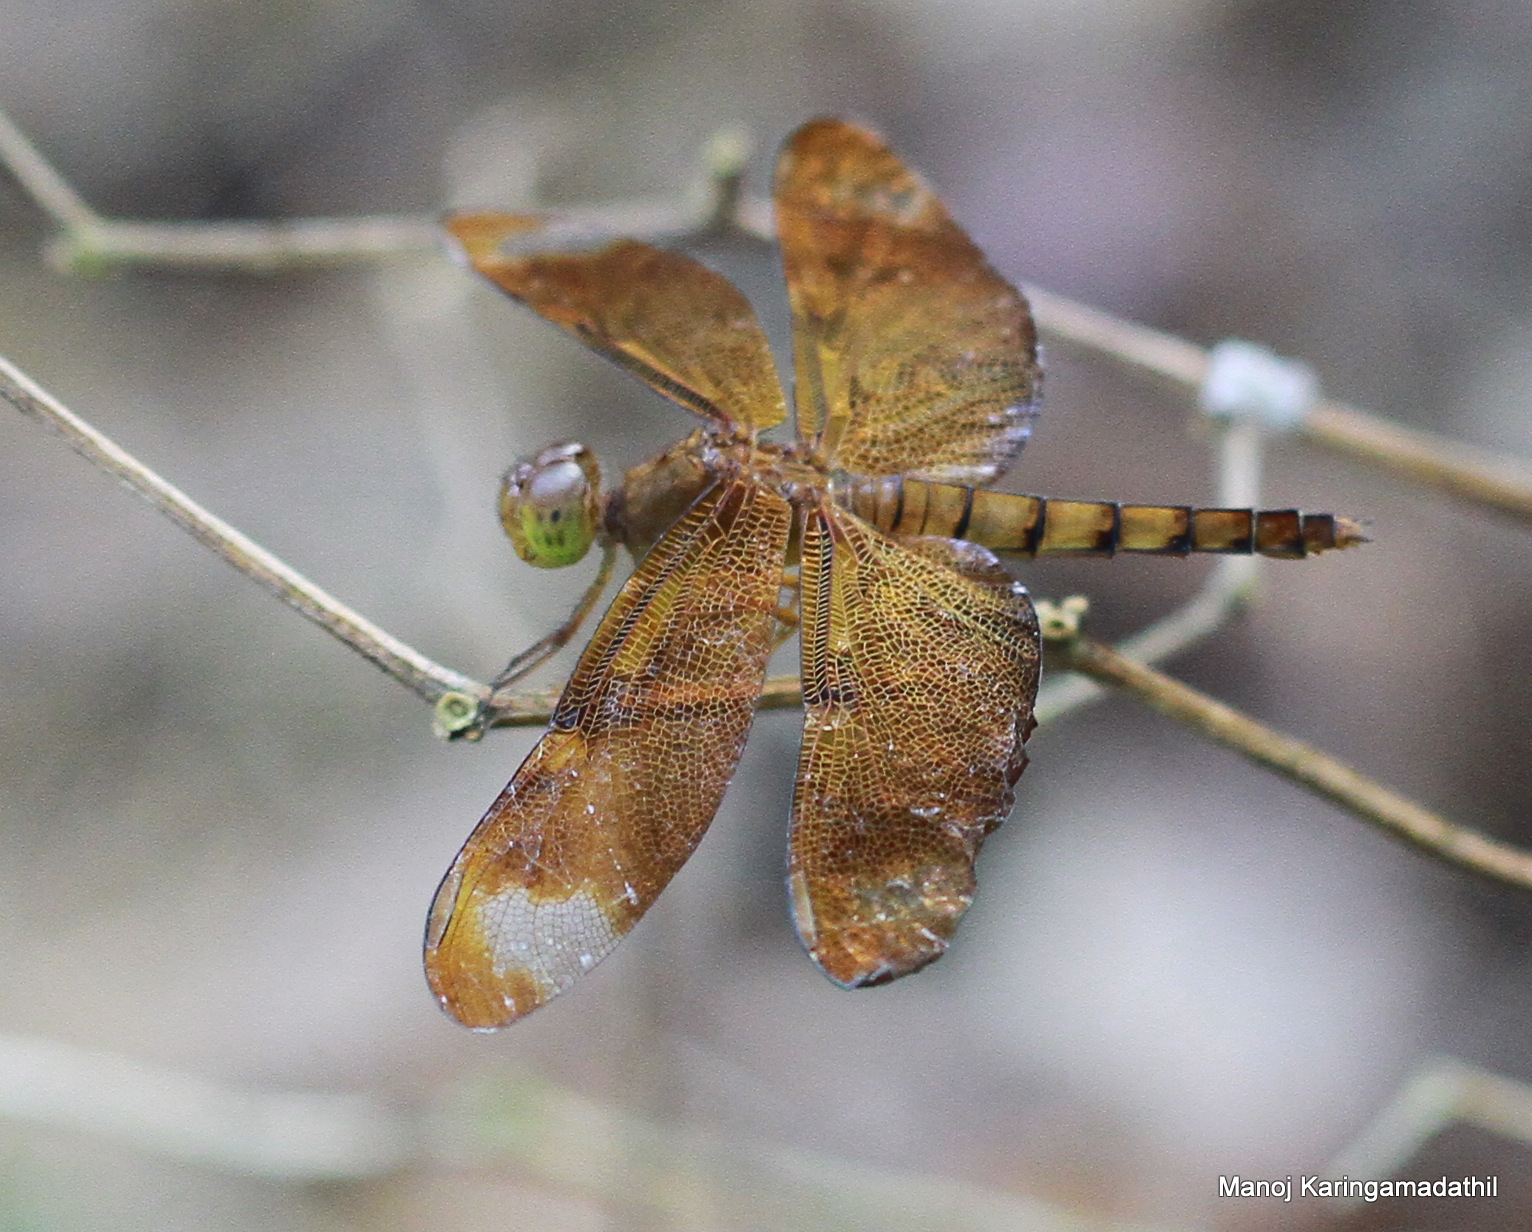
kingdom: Animalia
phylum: Arthropoda
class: Insecta
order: Odonata
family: Libellulidae
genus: Neurothemis
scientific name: Neurothemis fulvia
